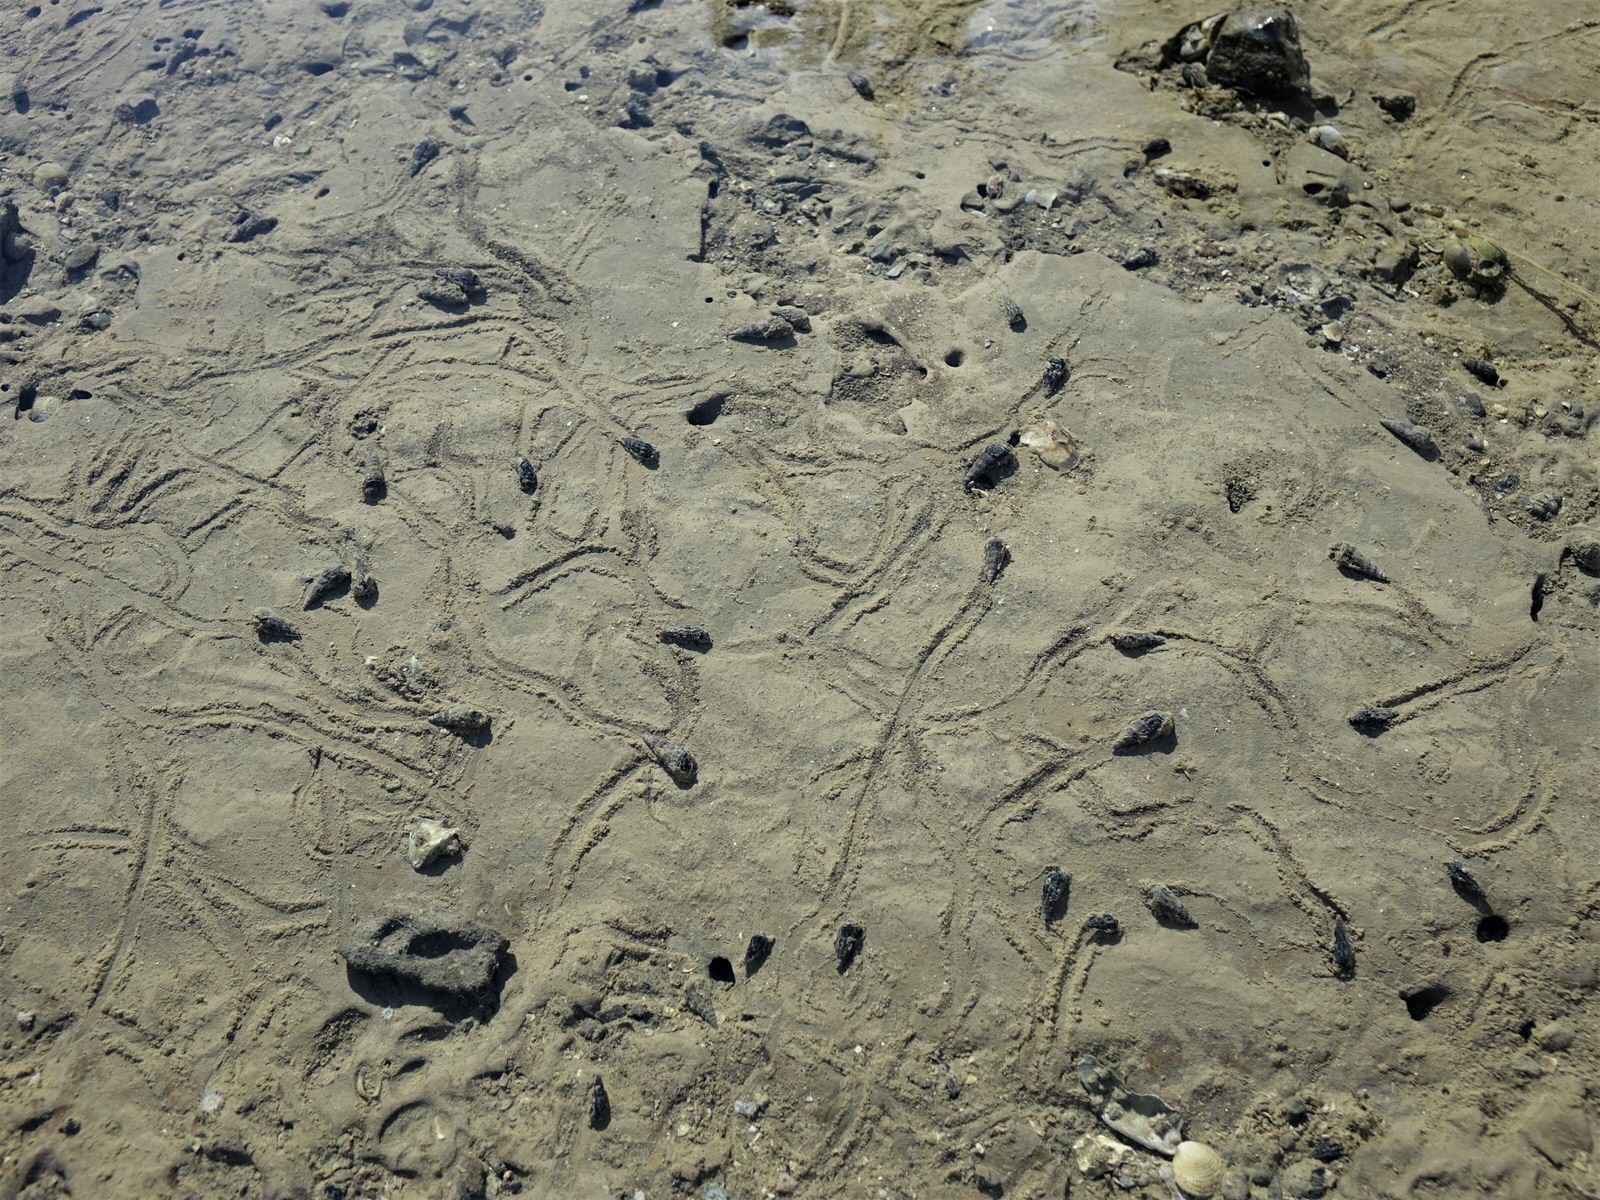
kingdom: Animalia
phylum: Mollusca
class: Gastropoda
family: Batillariidae
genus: Zeacumantus
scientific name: Zeacumantus
